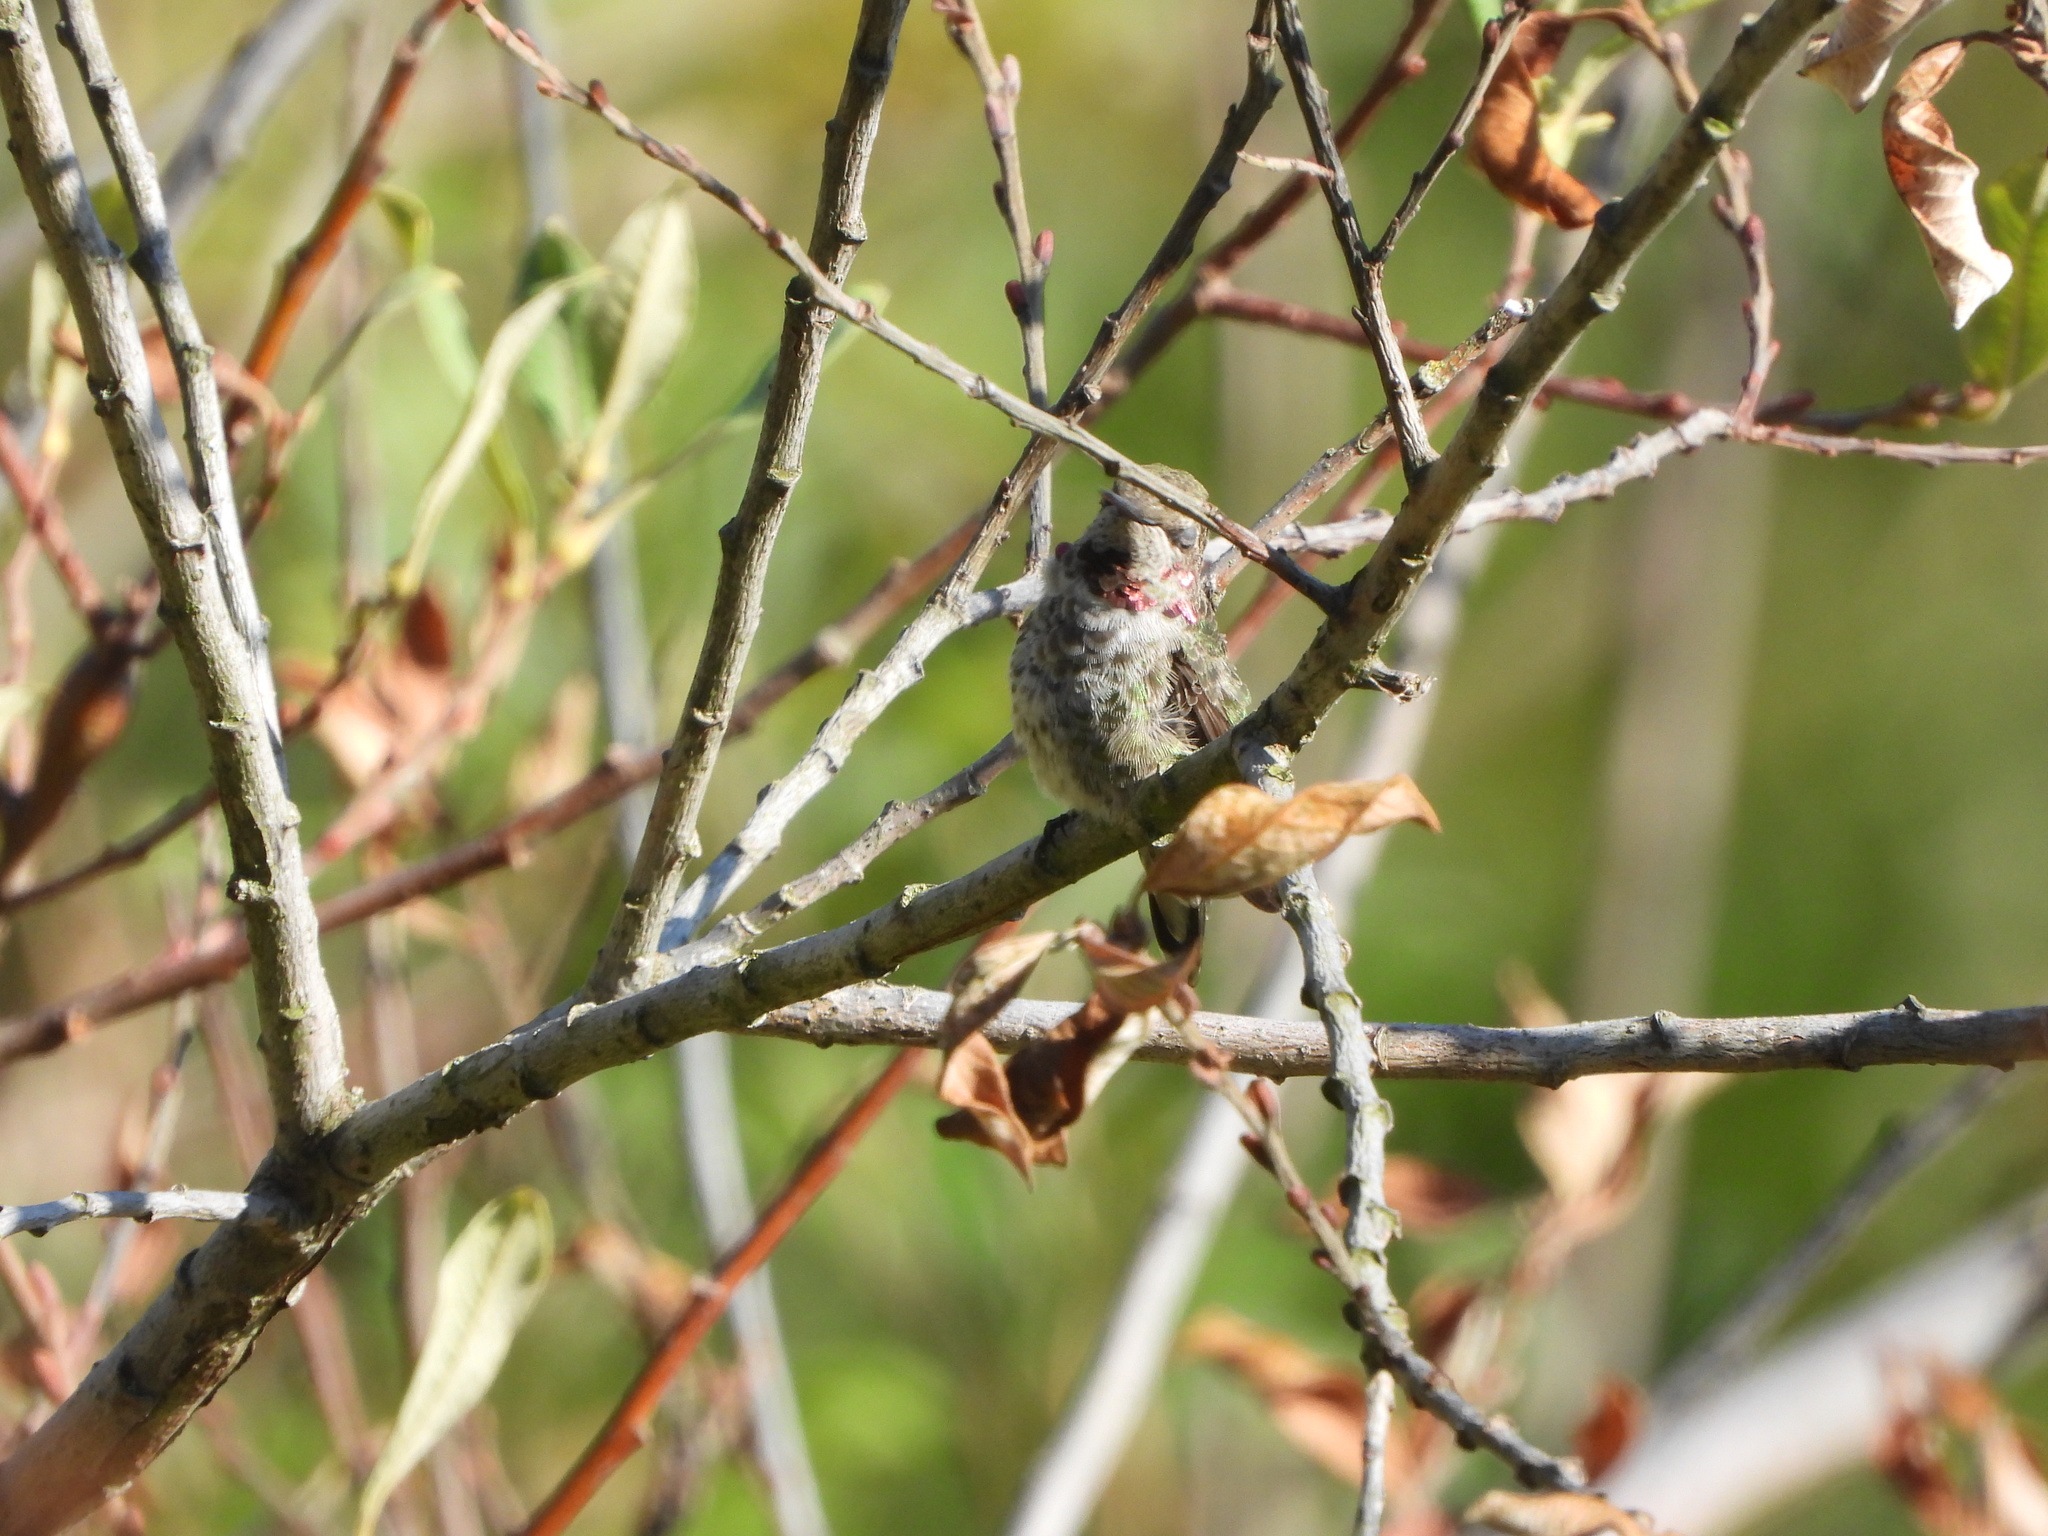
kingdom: Animalia
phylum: Chordata
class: Aves
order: Apodiformes
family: Trochilidae
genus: Calypte
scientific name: Calypte anna
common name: Anna's hummingbird
